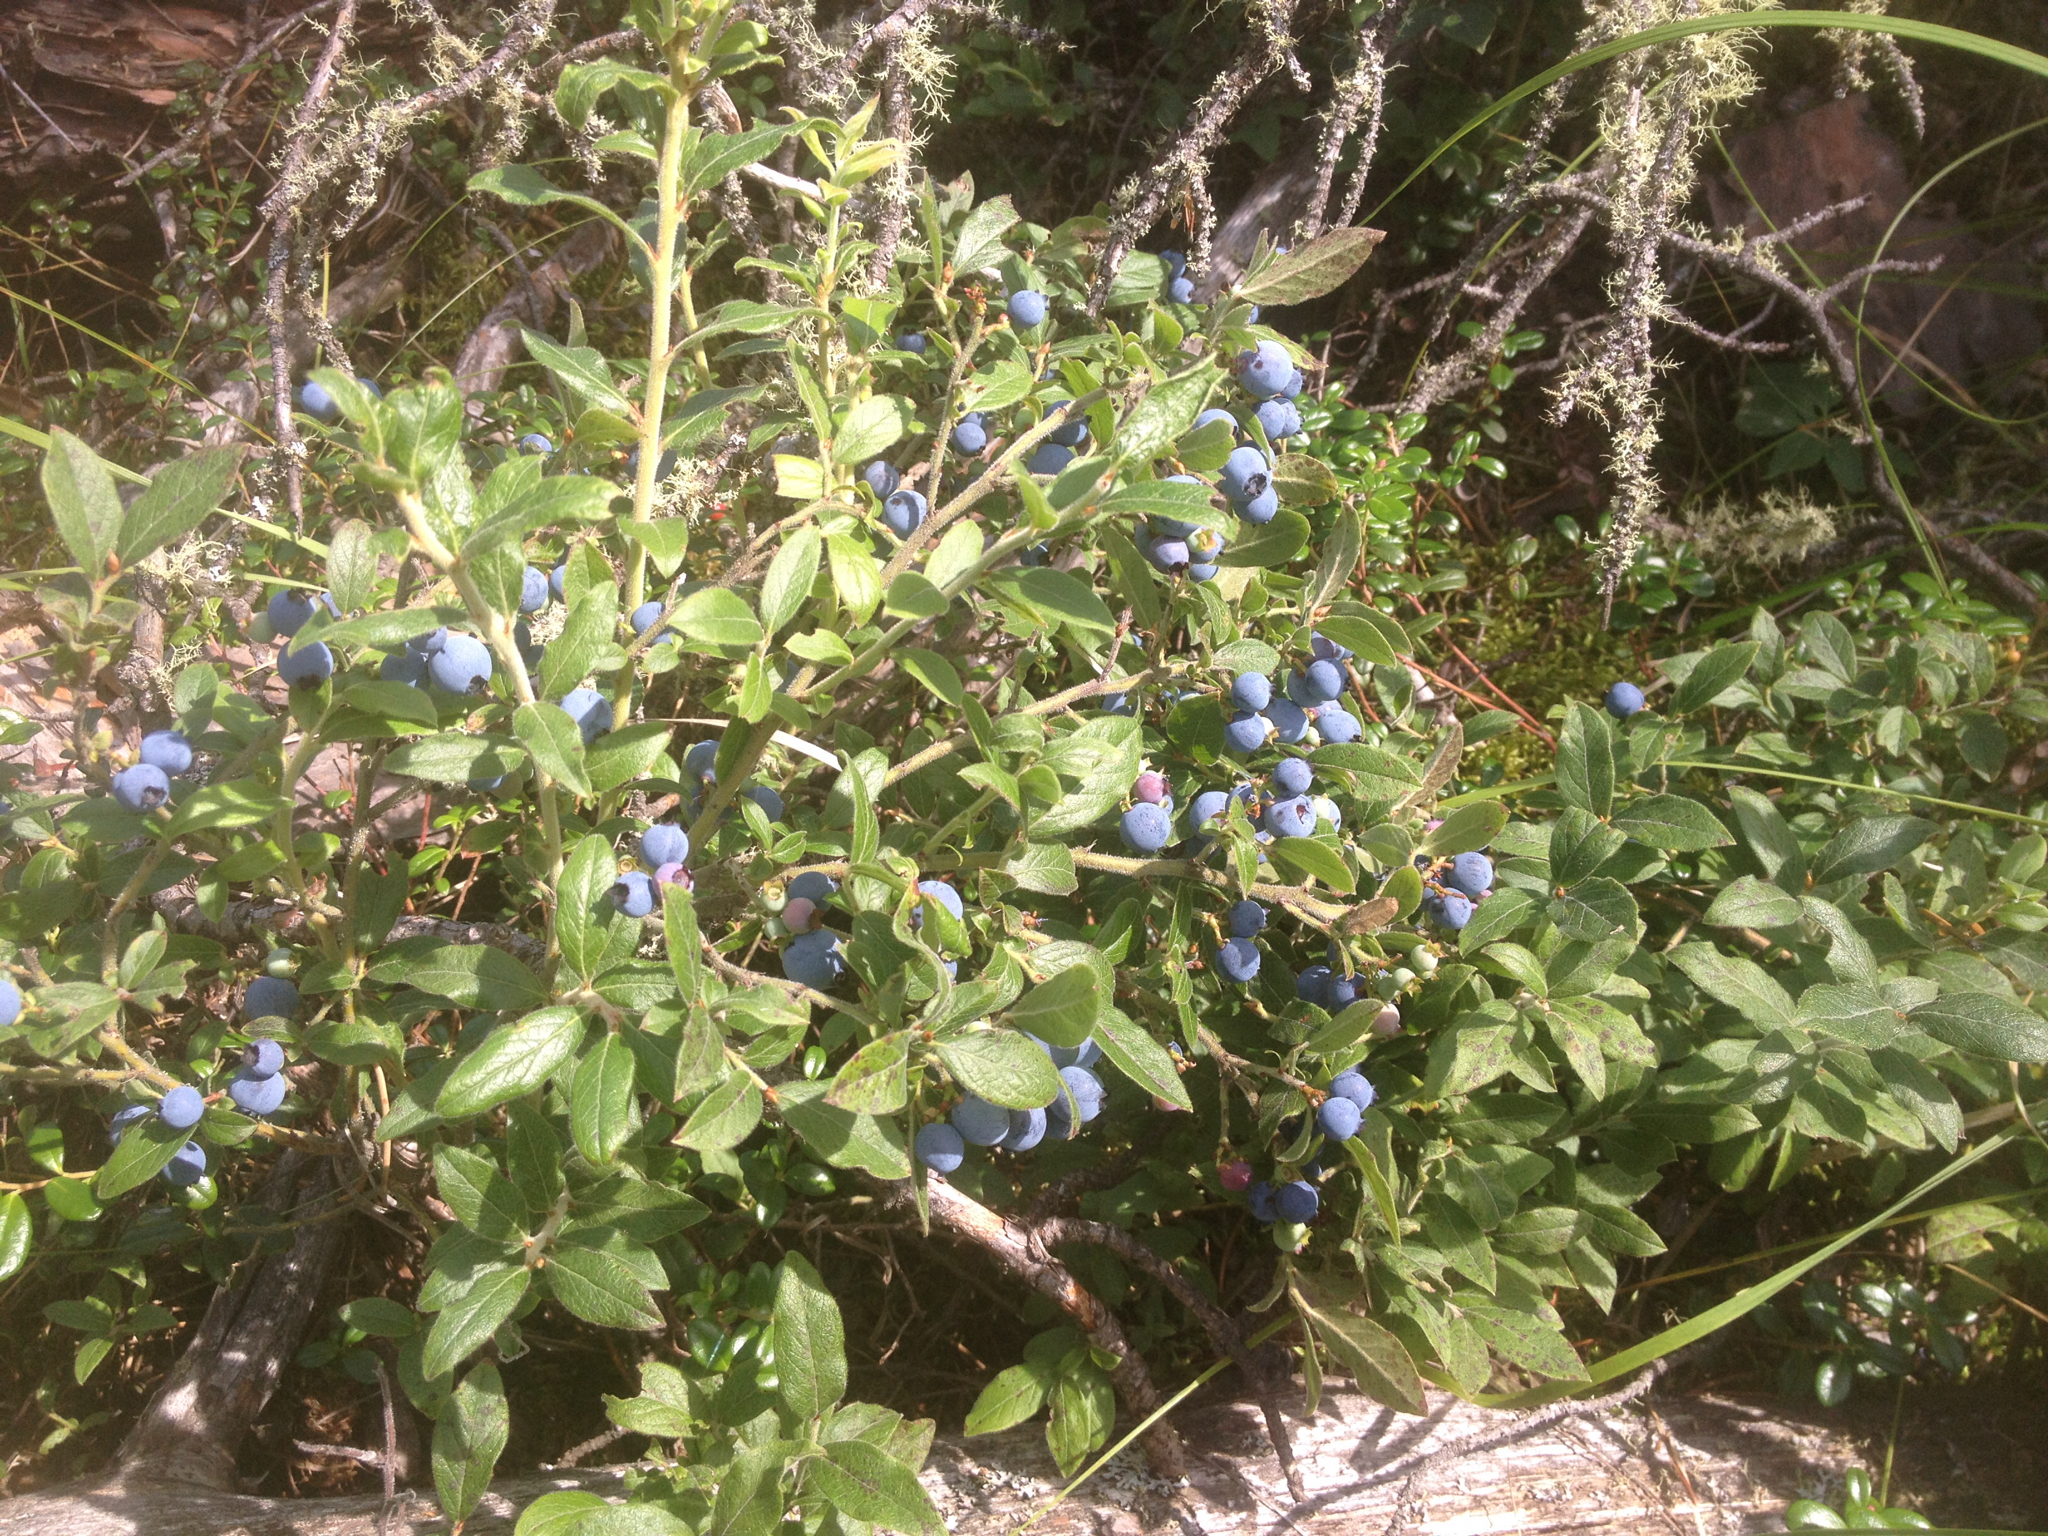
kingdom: Plantae
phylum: Tracheophyta
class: Magnoliopsida
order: Ericales
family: Ericaceae
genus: Vaccinium
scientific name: Vaccinium myrtilloides
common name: Canada blueberry
